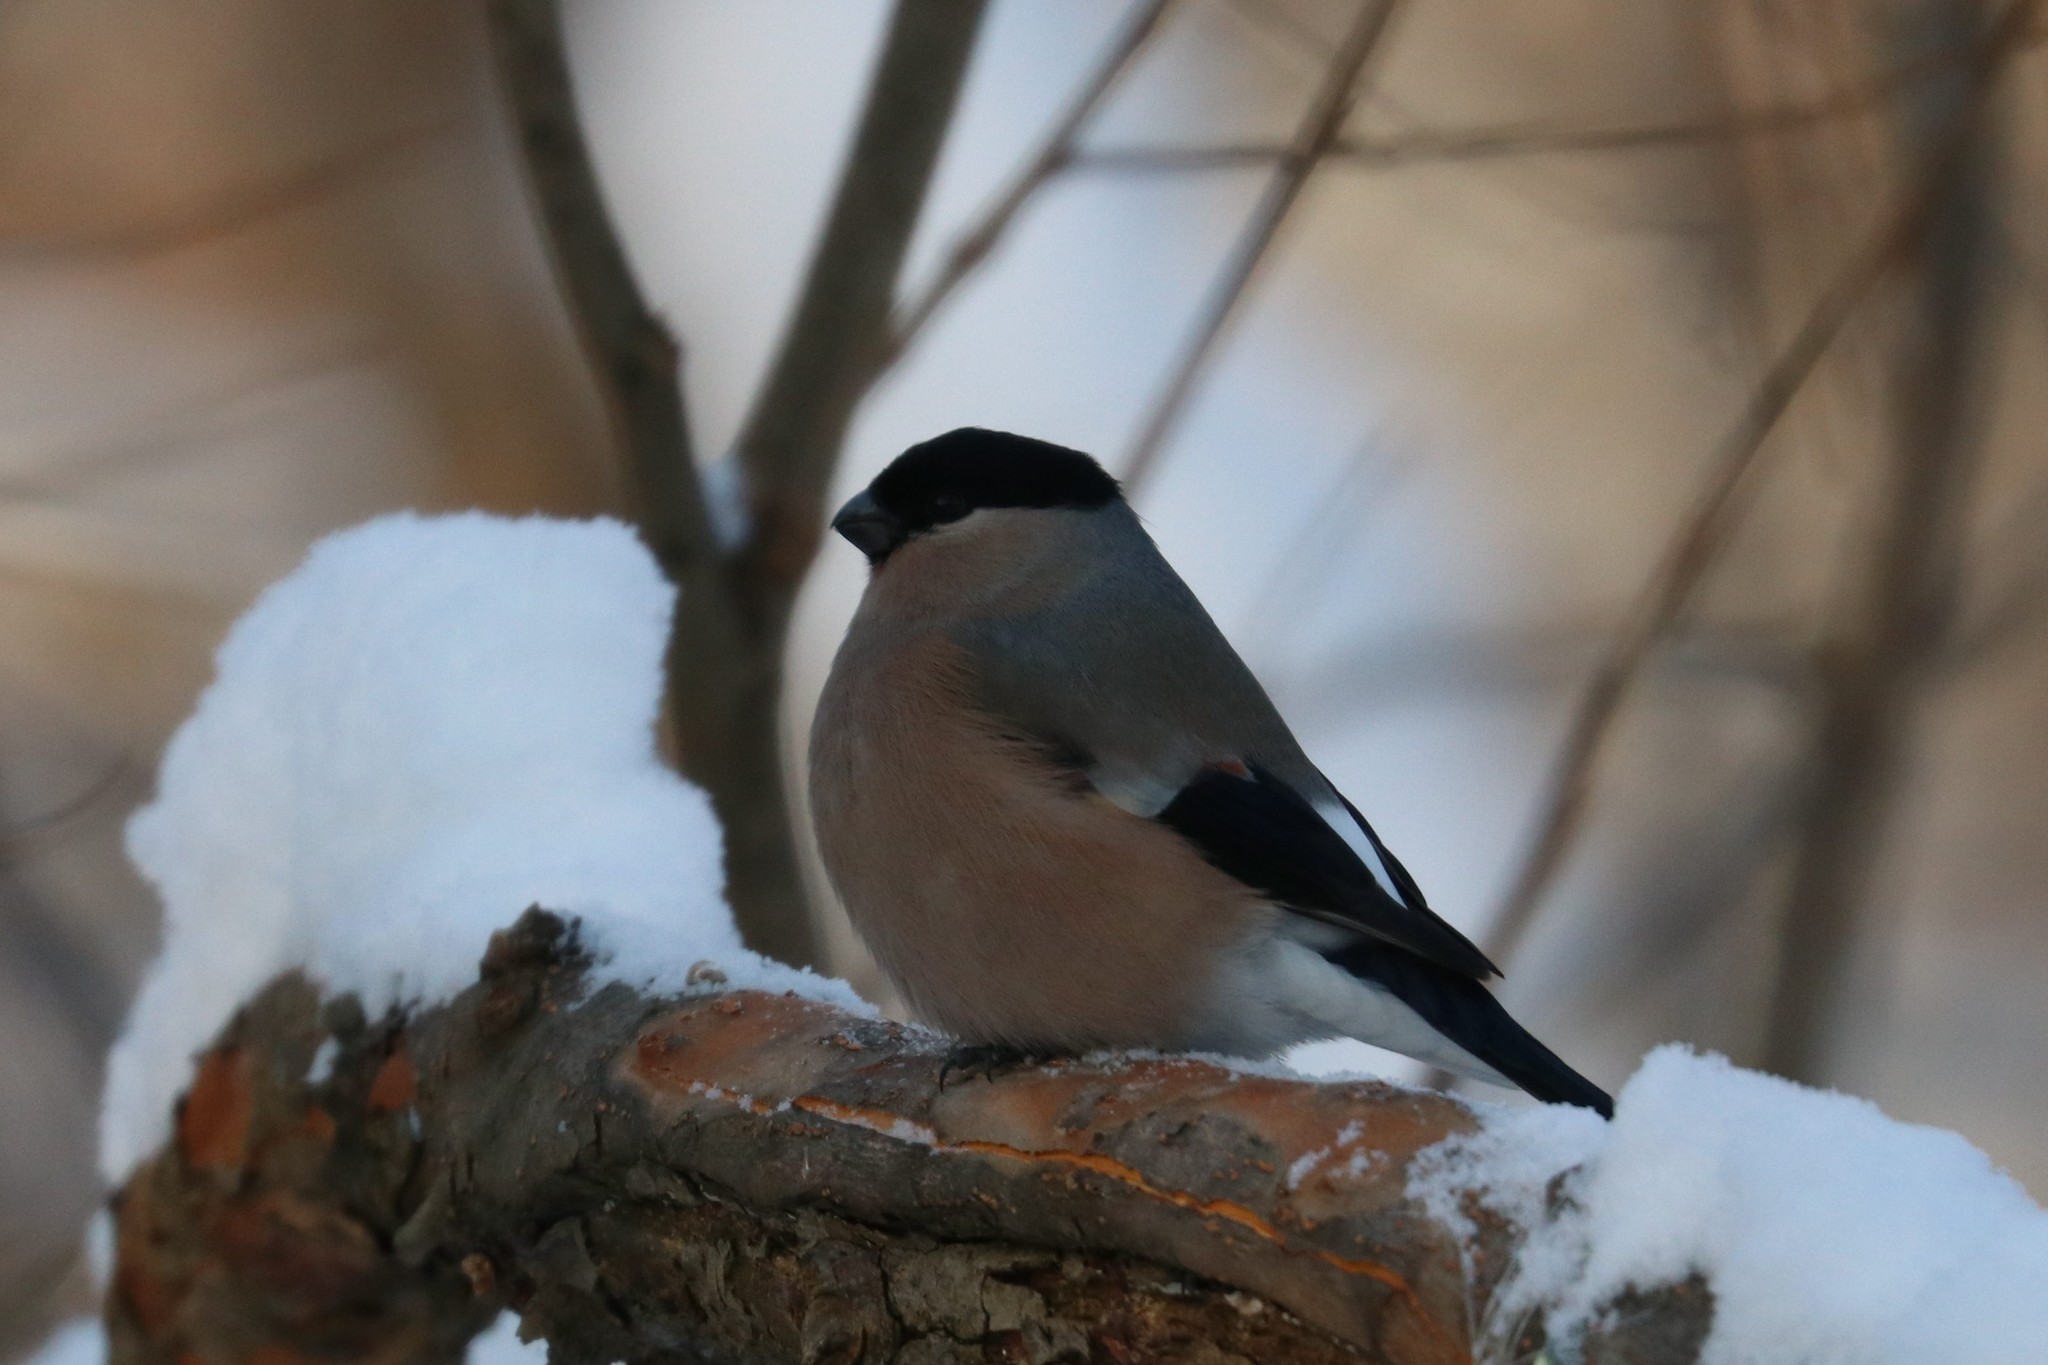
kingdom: Animalia
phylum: Chordata
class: Aves
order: Passeriformes
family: Fringillidae
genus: Pyrrhula
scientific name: Pyrrhula pyrrhula
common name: Eurasian bullfinch
